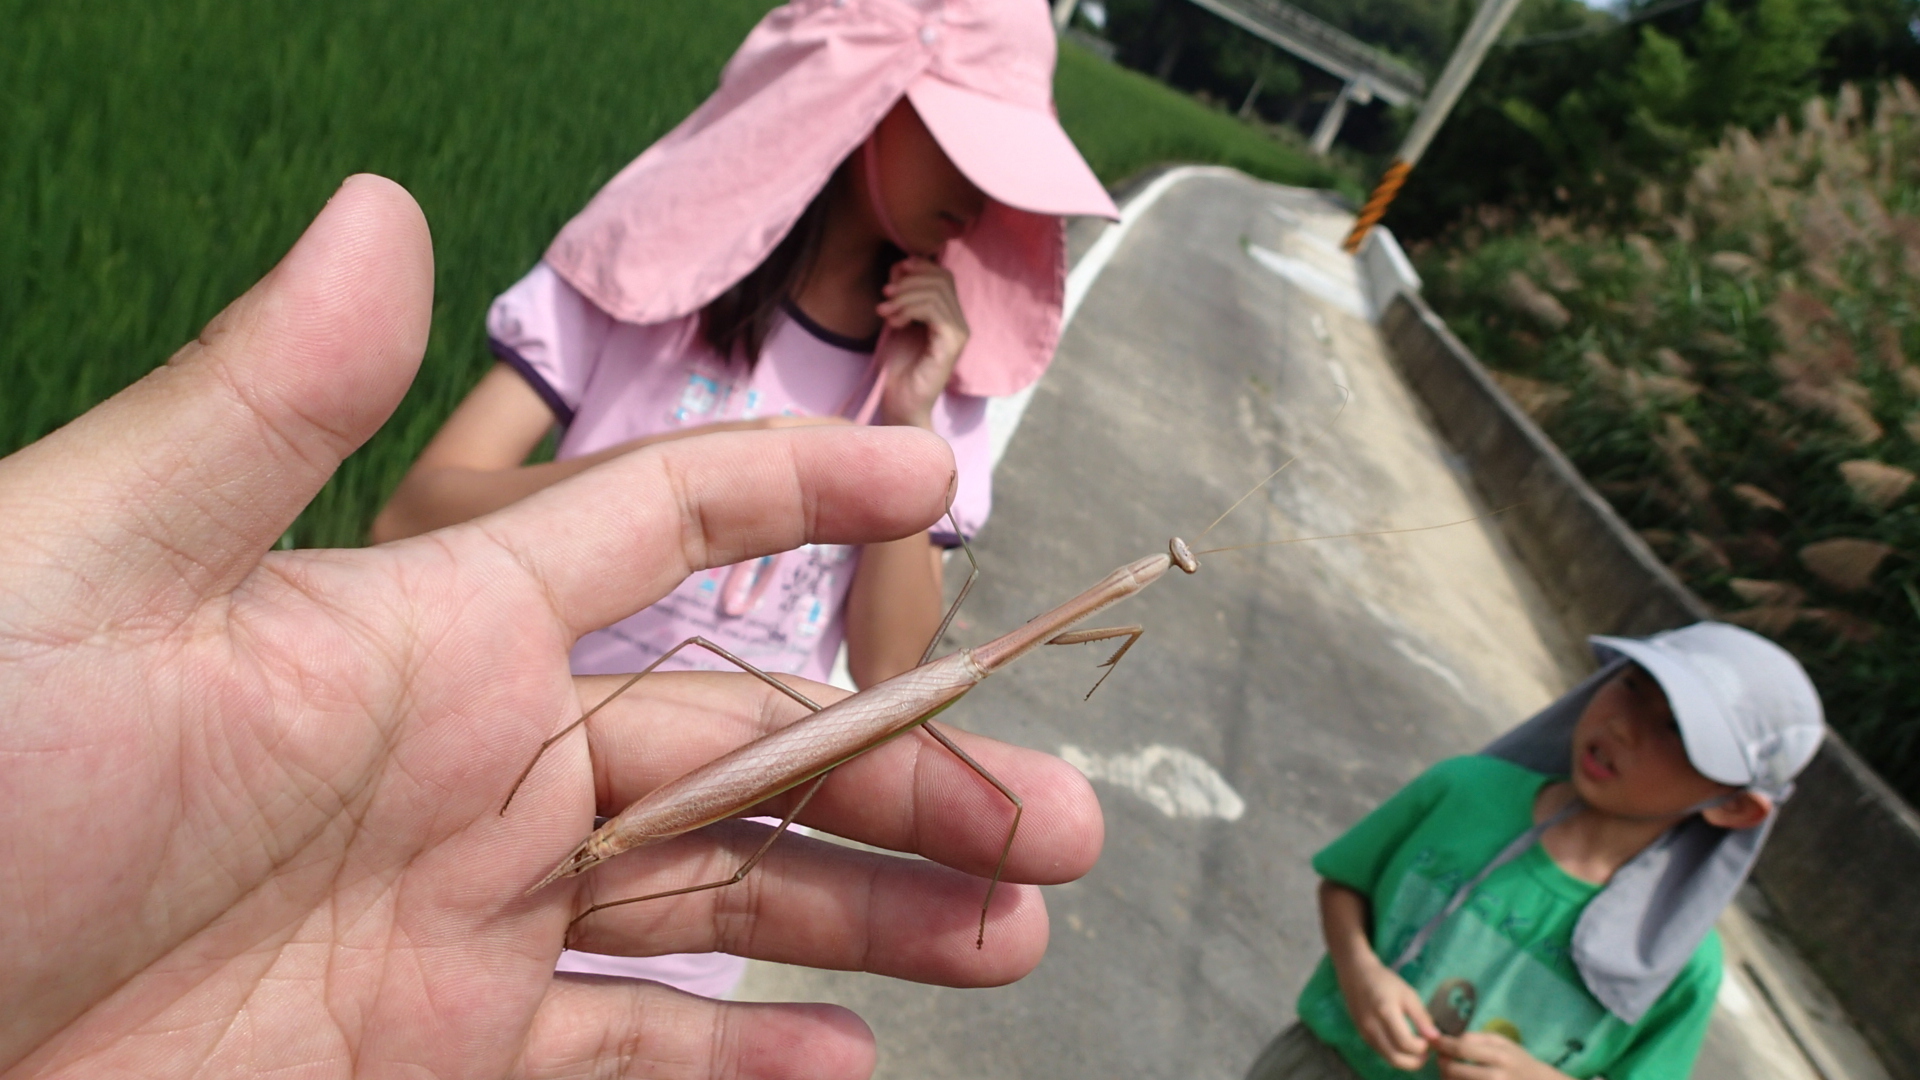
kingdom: Animalia
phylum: Arthropoda
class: Insecta
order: Mantodea
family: Mantidae
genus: Mesopteryx
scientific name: Mesopteryx alata
